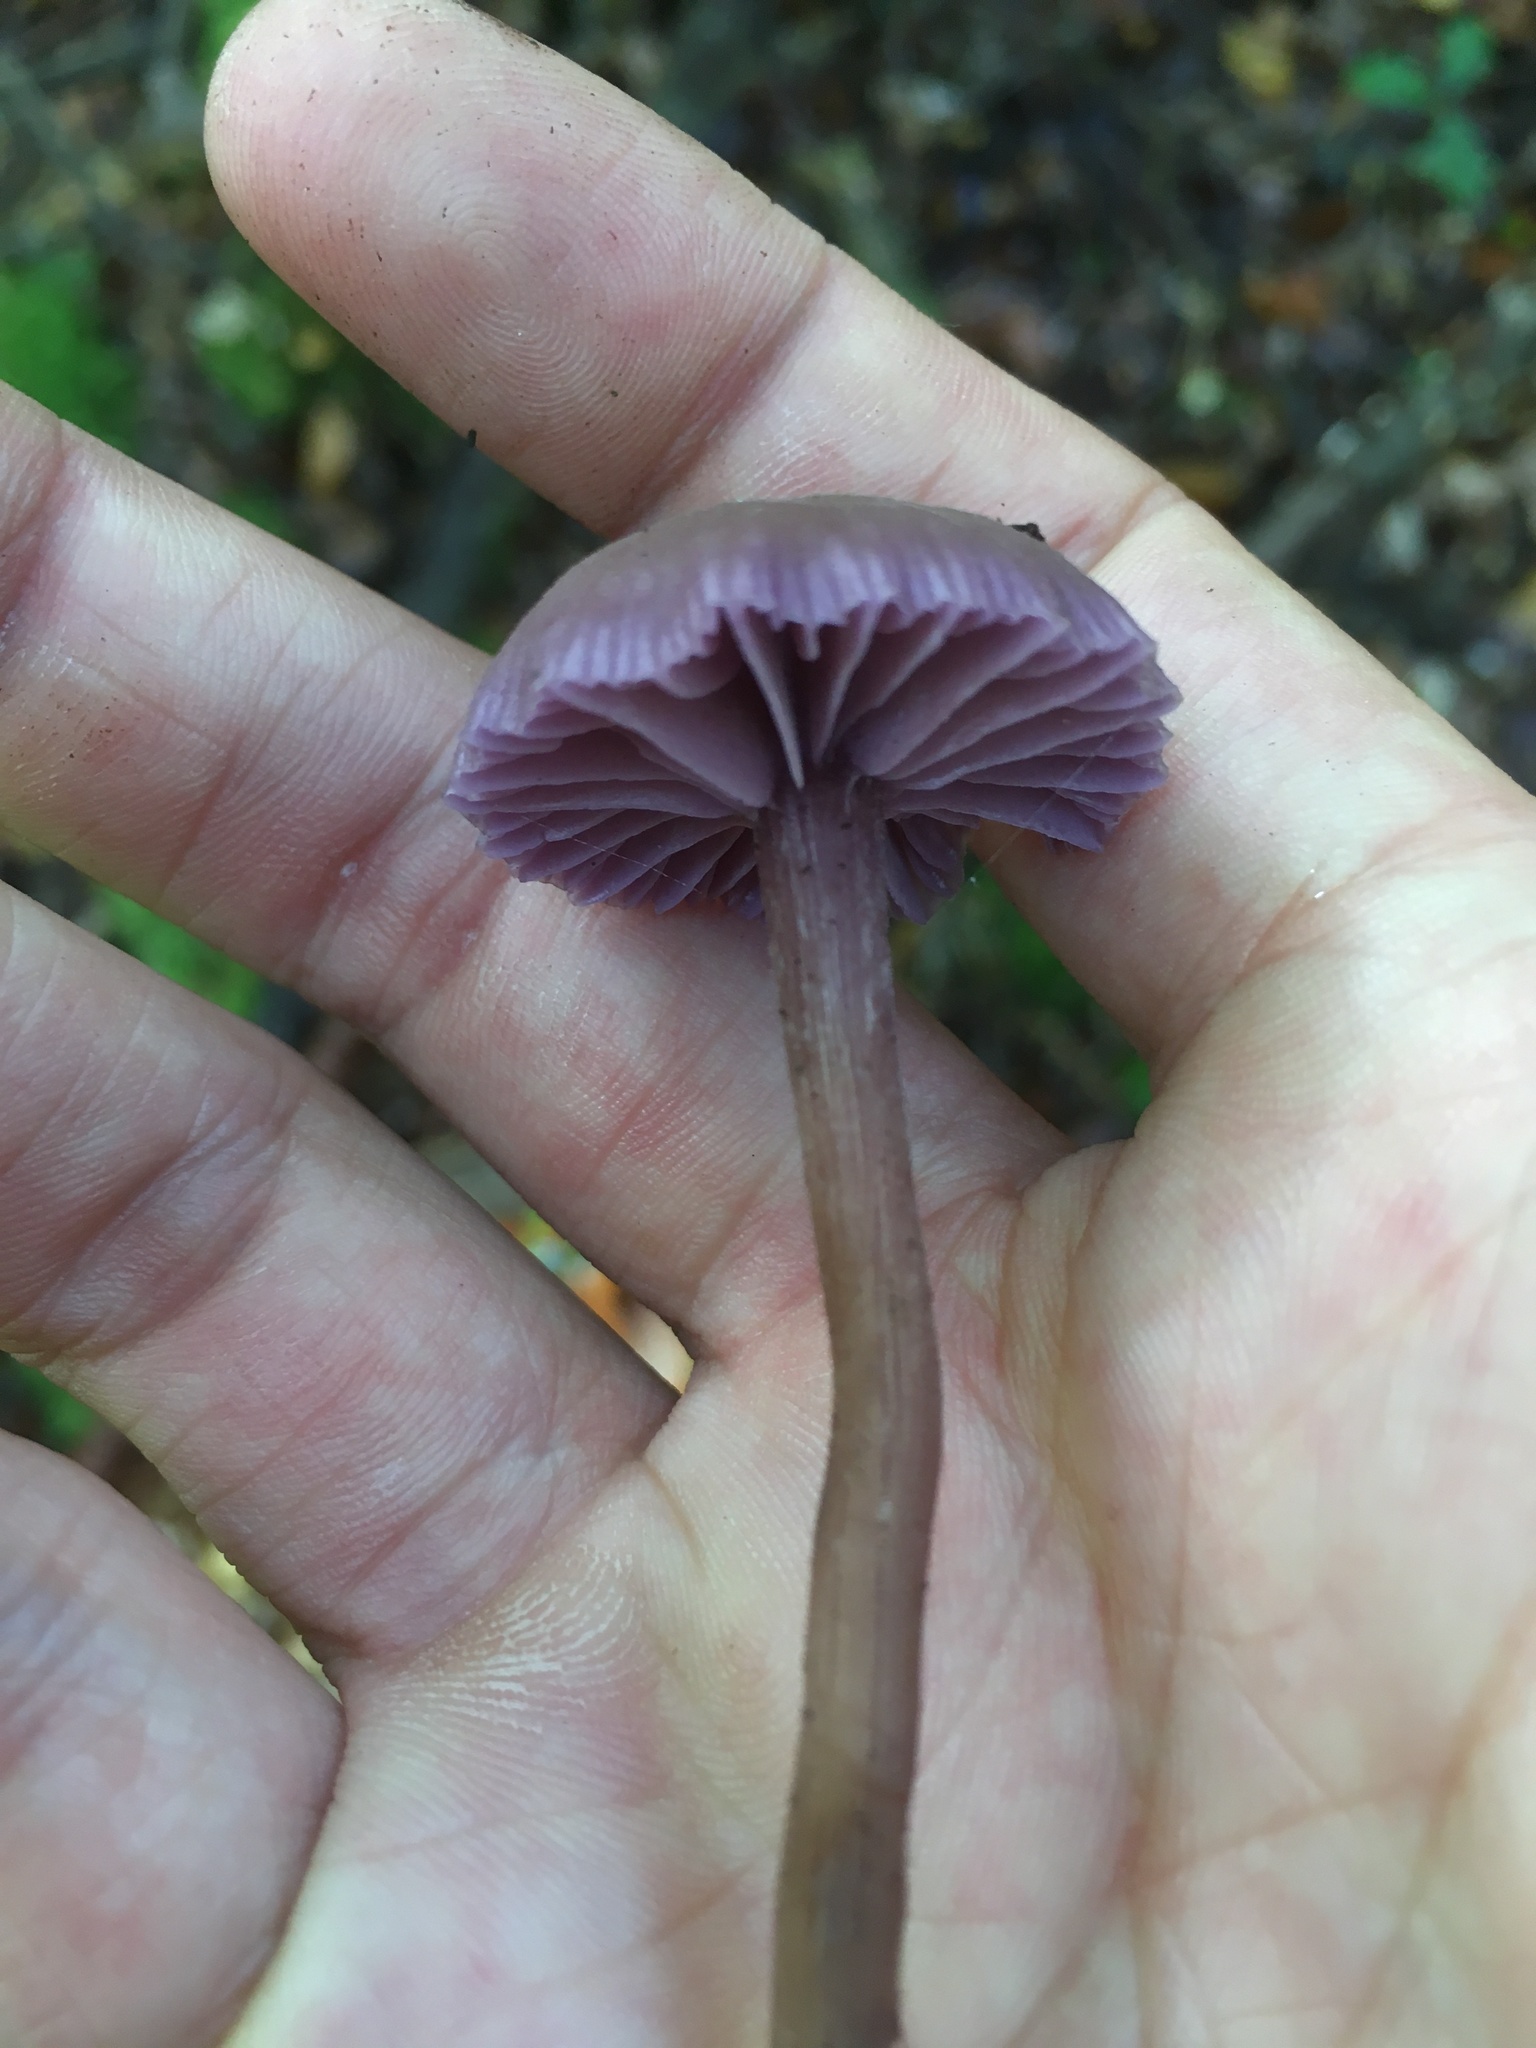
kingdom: Fungi
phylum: Basidiomycota
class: Agaricomycetes
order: Agaricales
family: Hydnangiaceae
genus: Laccaria
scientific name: Laccaria amethystina
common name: Amethyst deceiver
